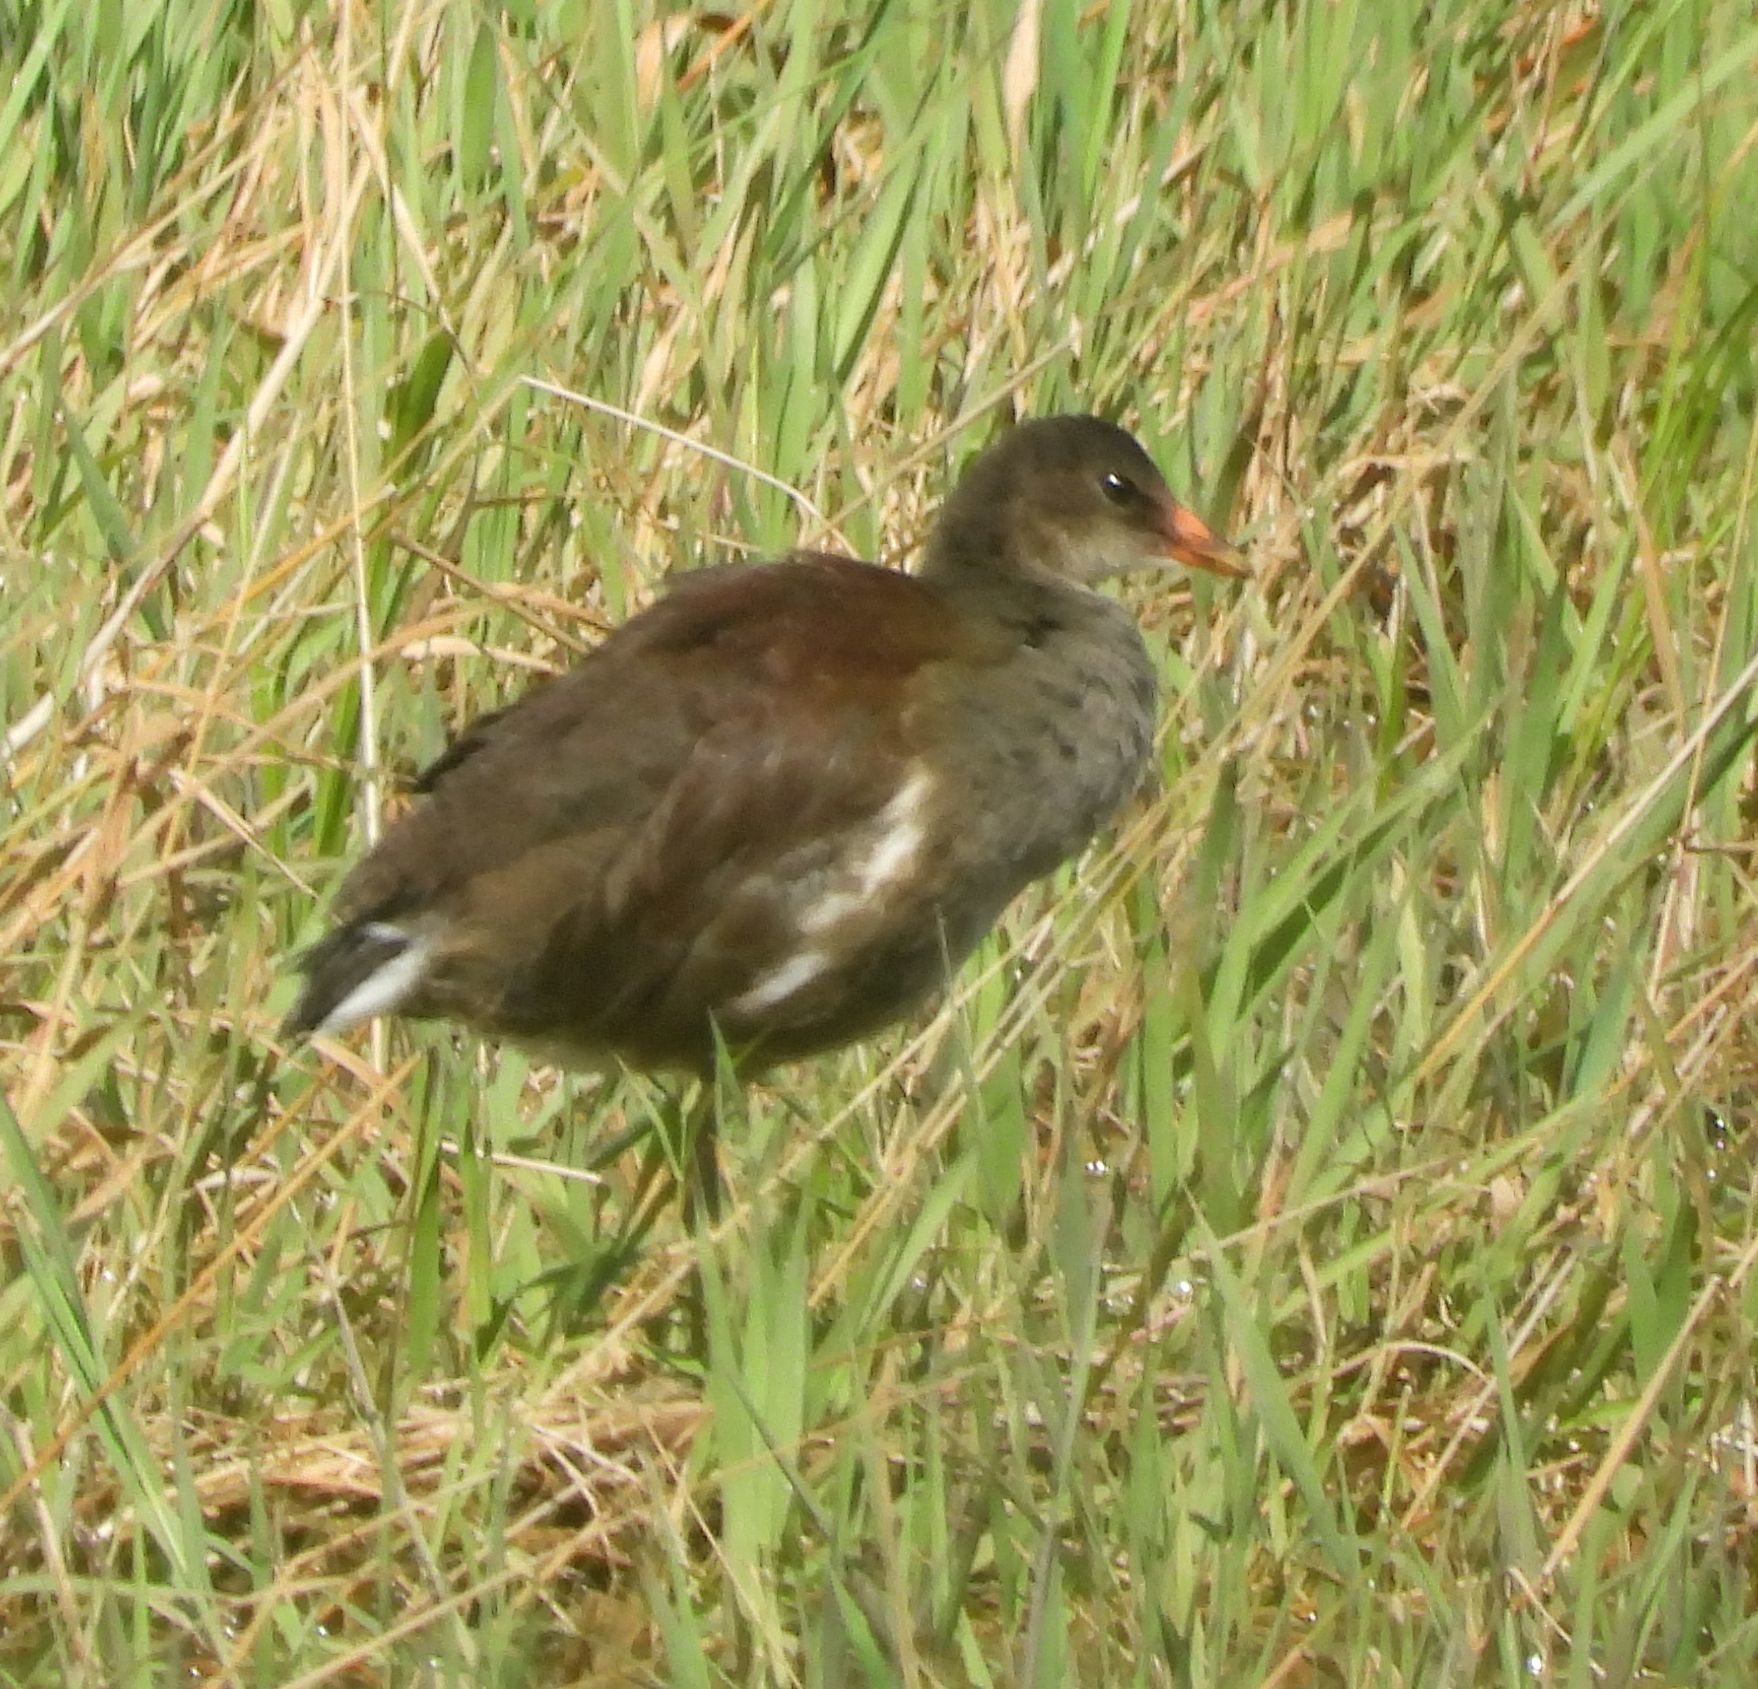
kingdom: Animalia
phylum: Chordata
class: Aves
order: Gruiformes
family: Rallidae
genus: Gallinula
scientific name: Gallinula chloropus
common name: Common moorhen
